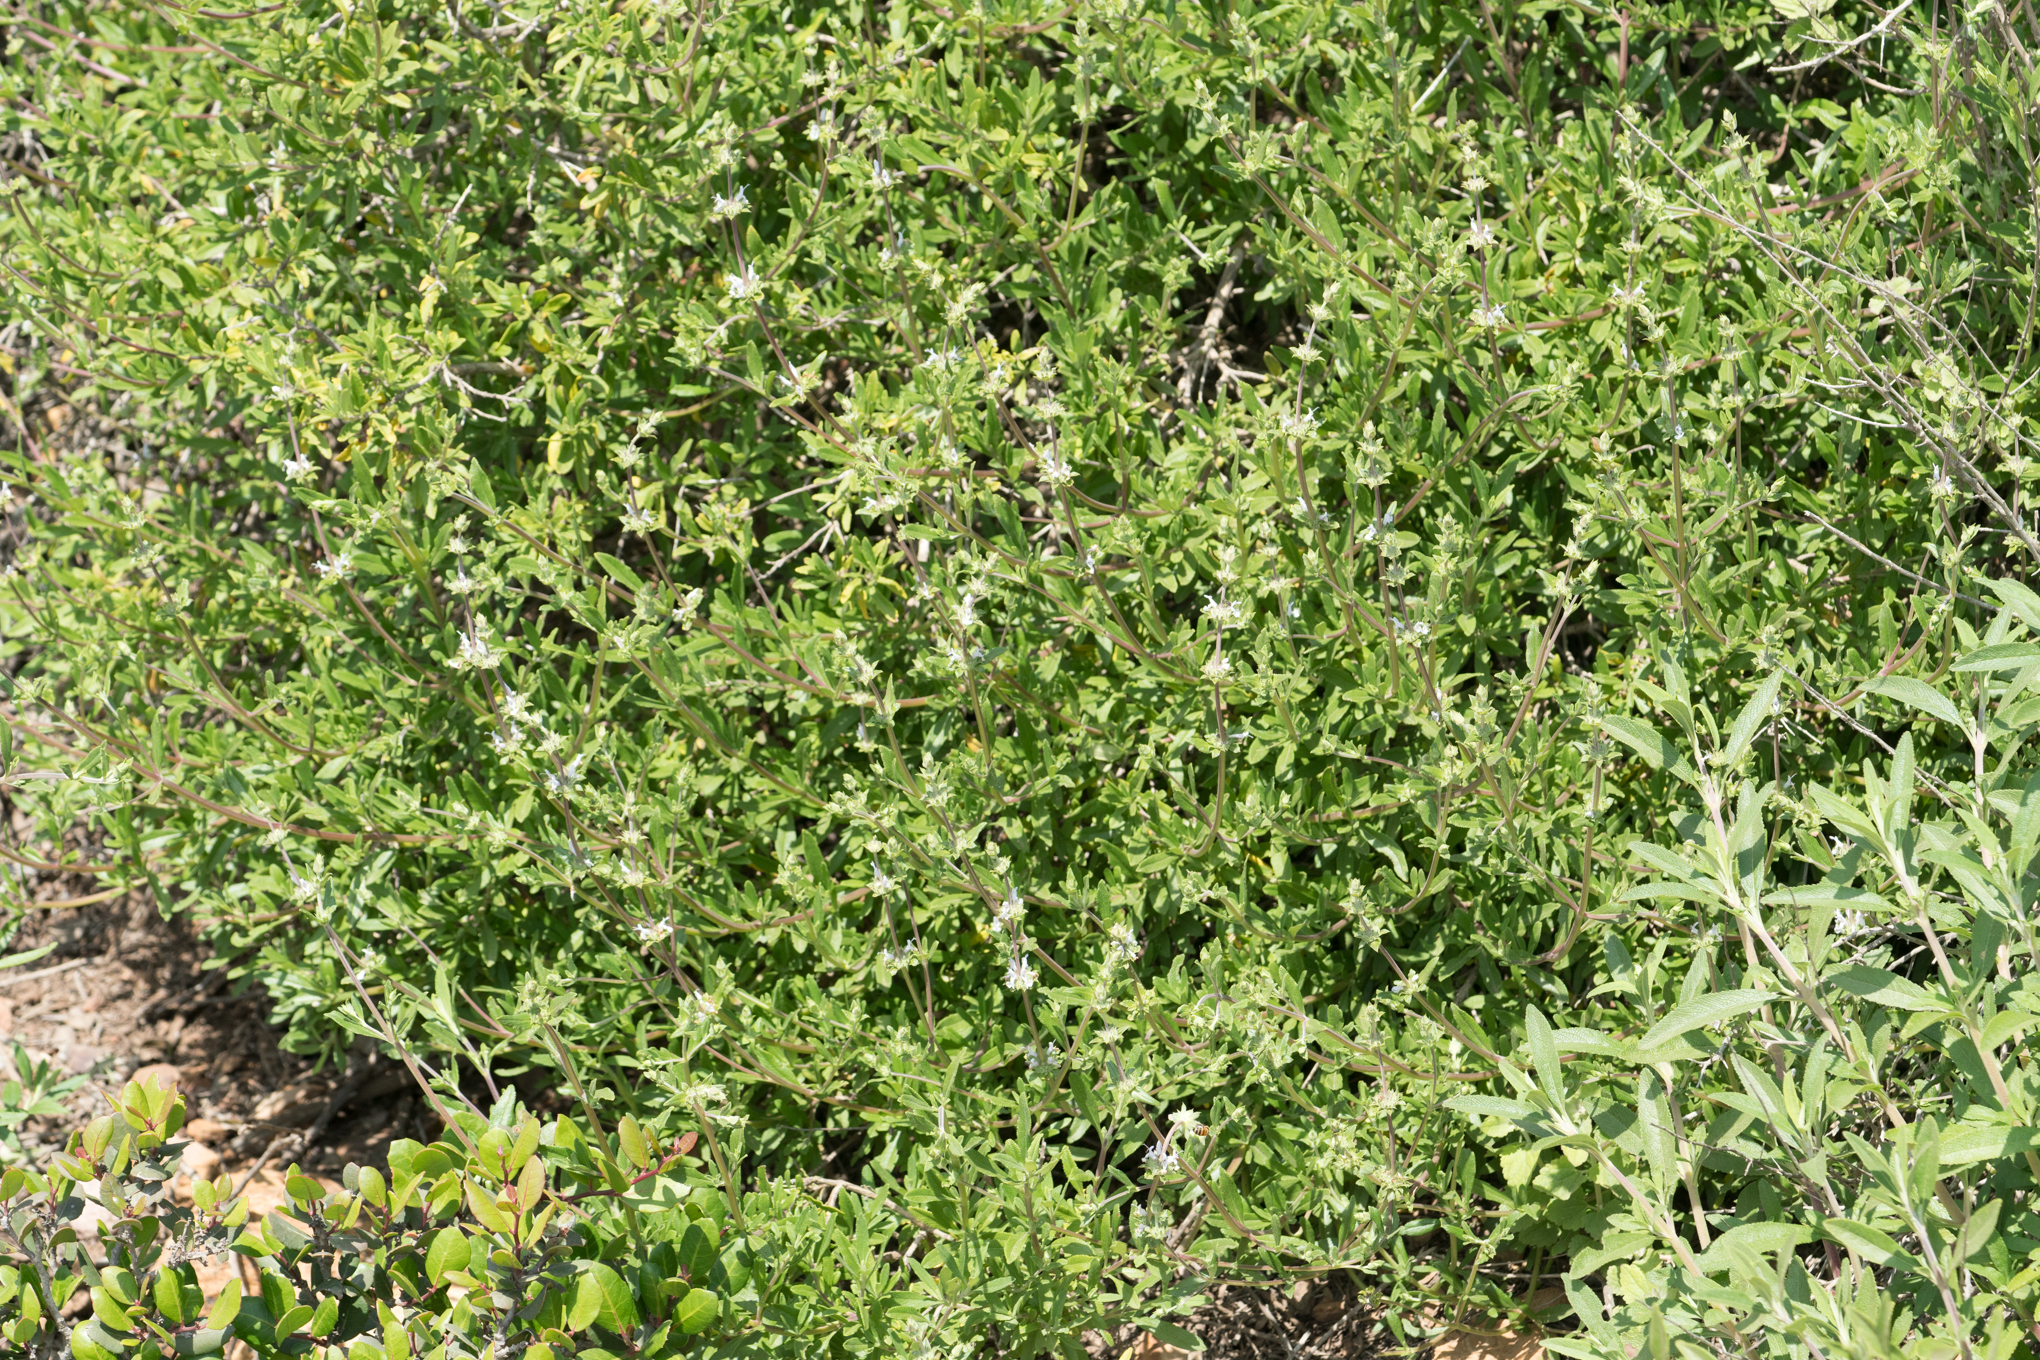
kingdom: Plantae
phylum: Tracheophyta
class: Magnoliopsida
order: Lamiales
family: Lamiaceae
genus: Salvia
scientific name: Salvia mellifera
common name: Black sage
